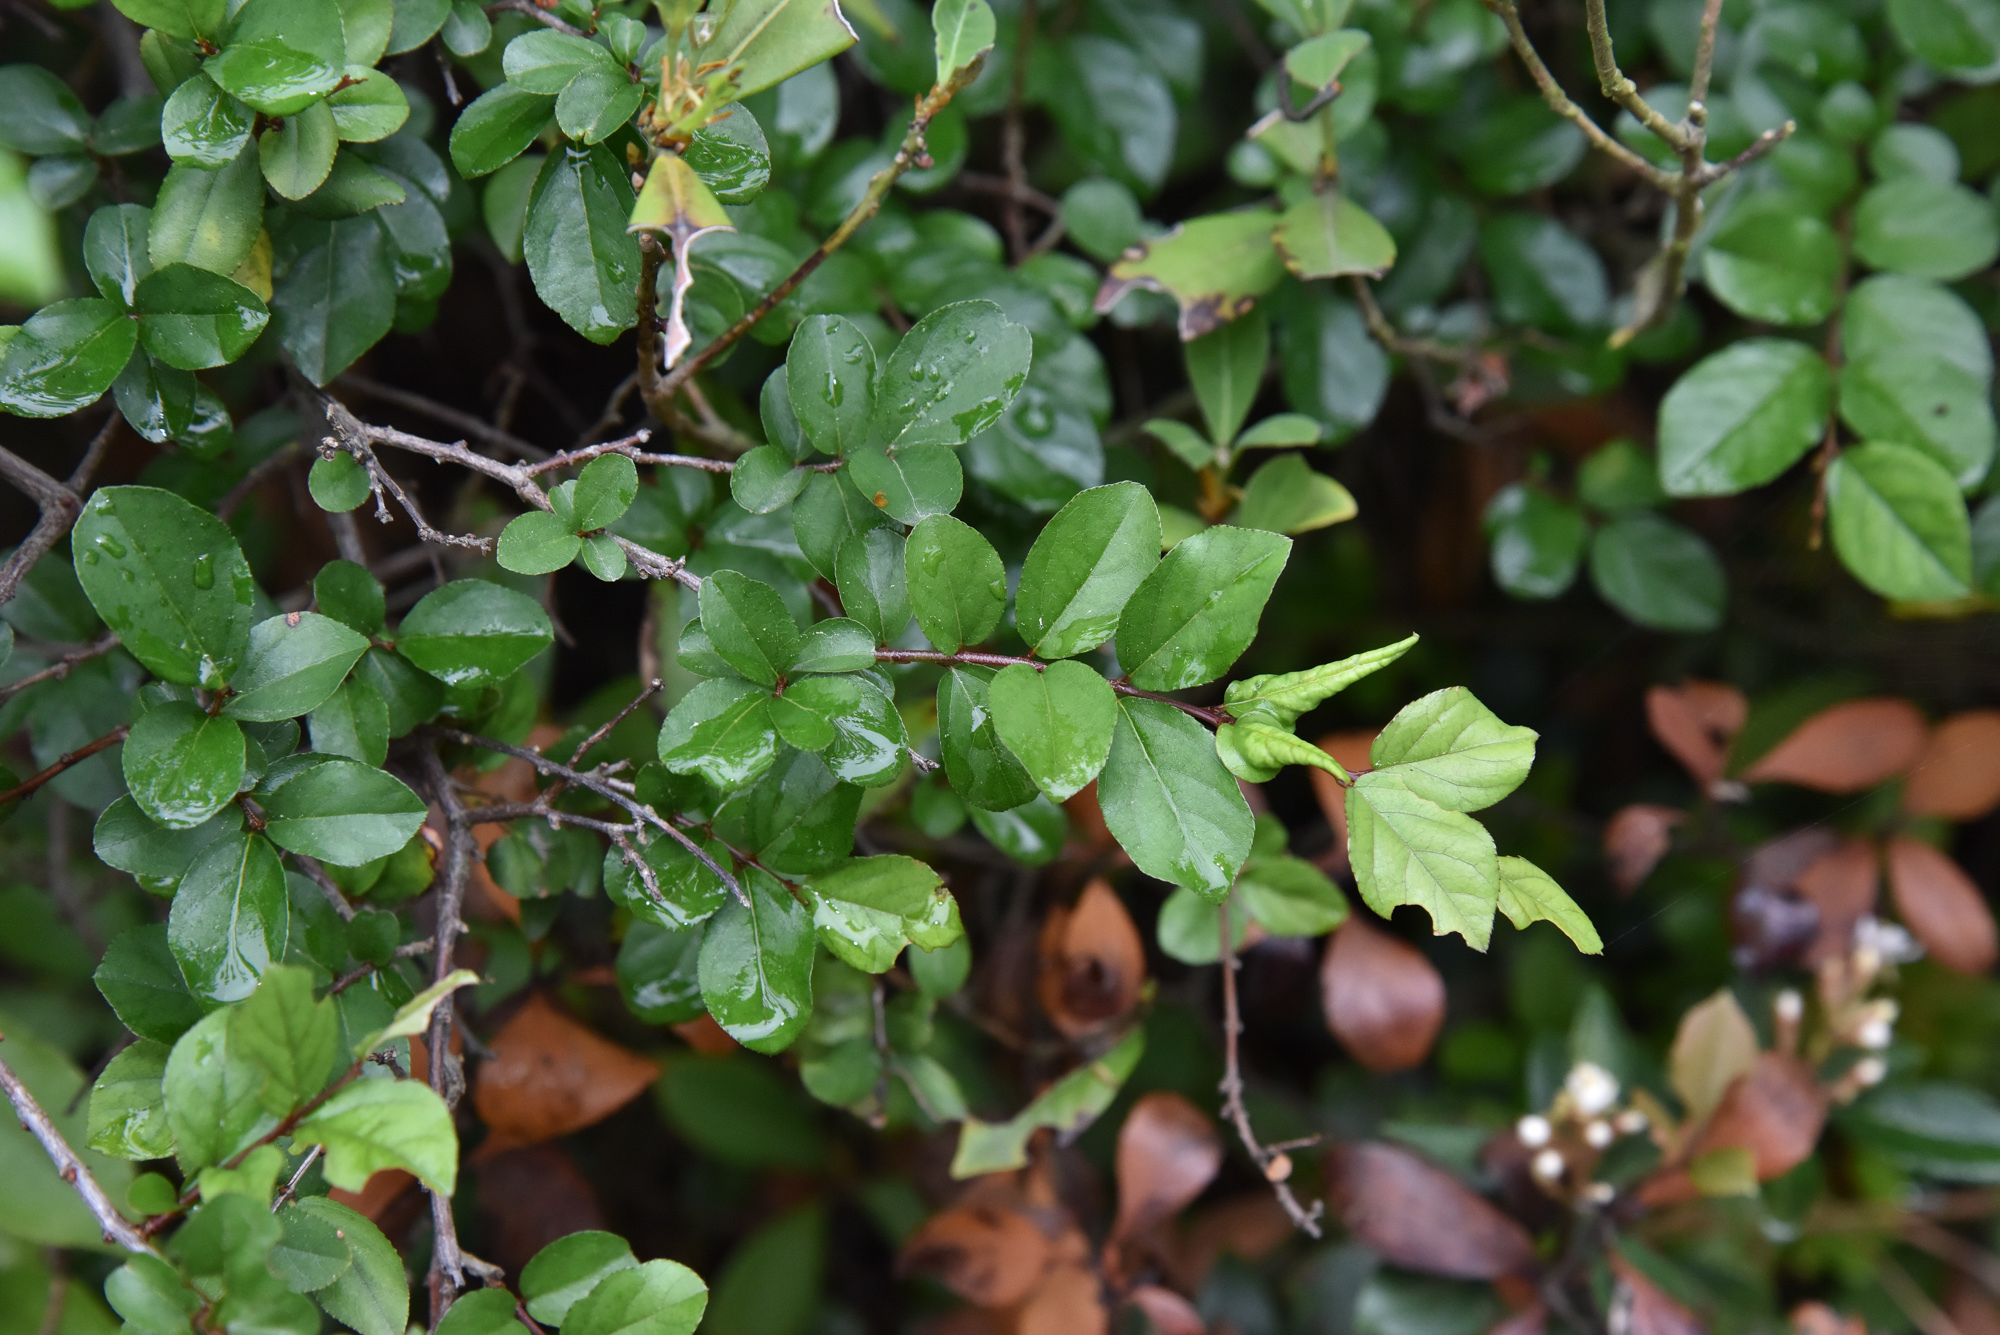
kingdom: Plantae
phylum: Tracheophyta
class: Magnoliopsida
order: Rosales
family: Rhamnaceae
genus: Sageretia
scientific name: Sageretia thea
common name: Pauper's-tea
